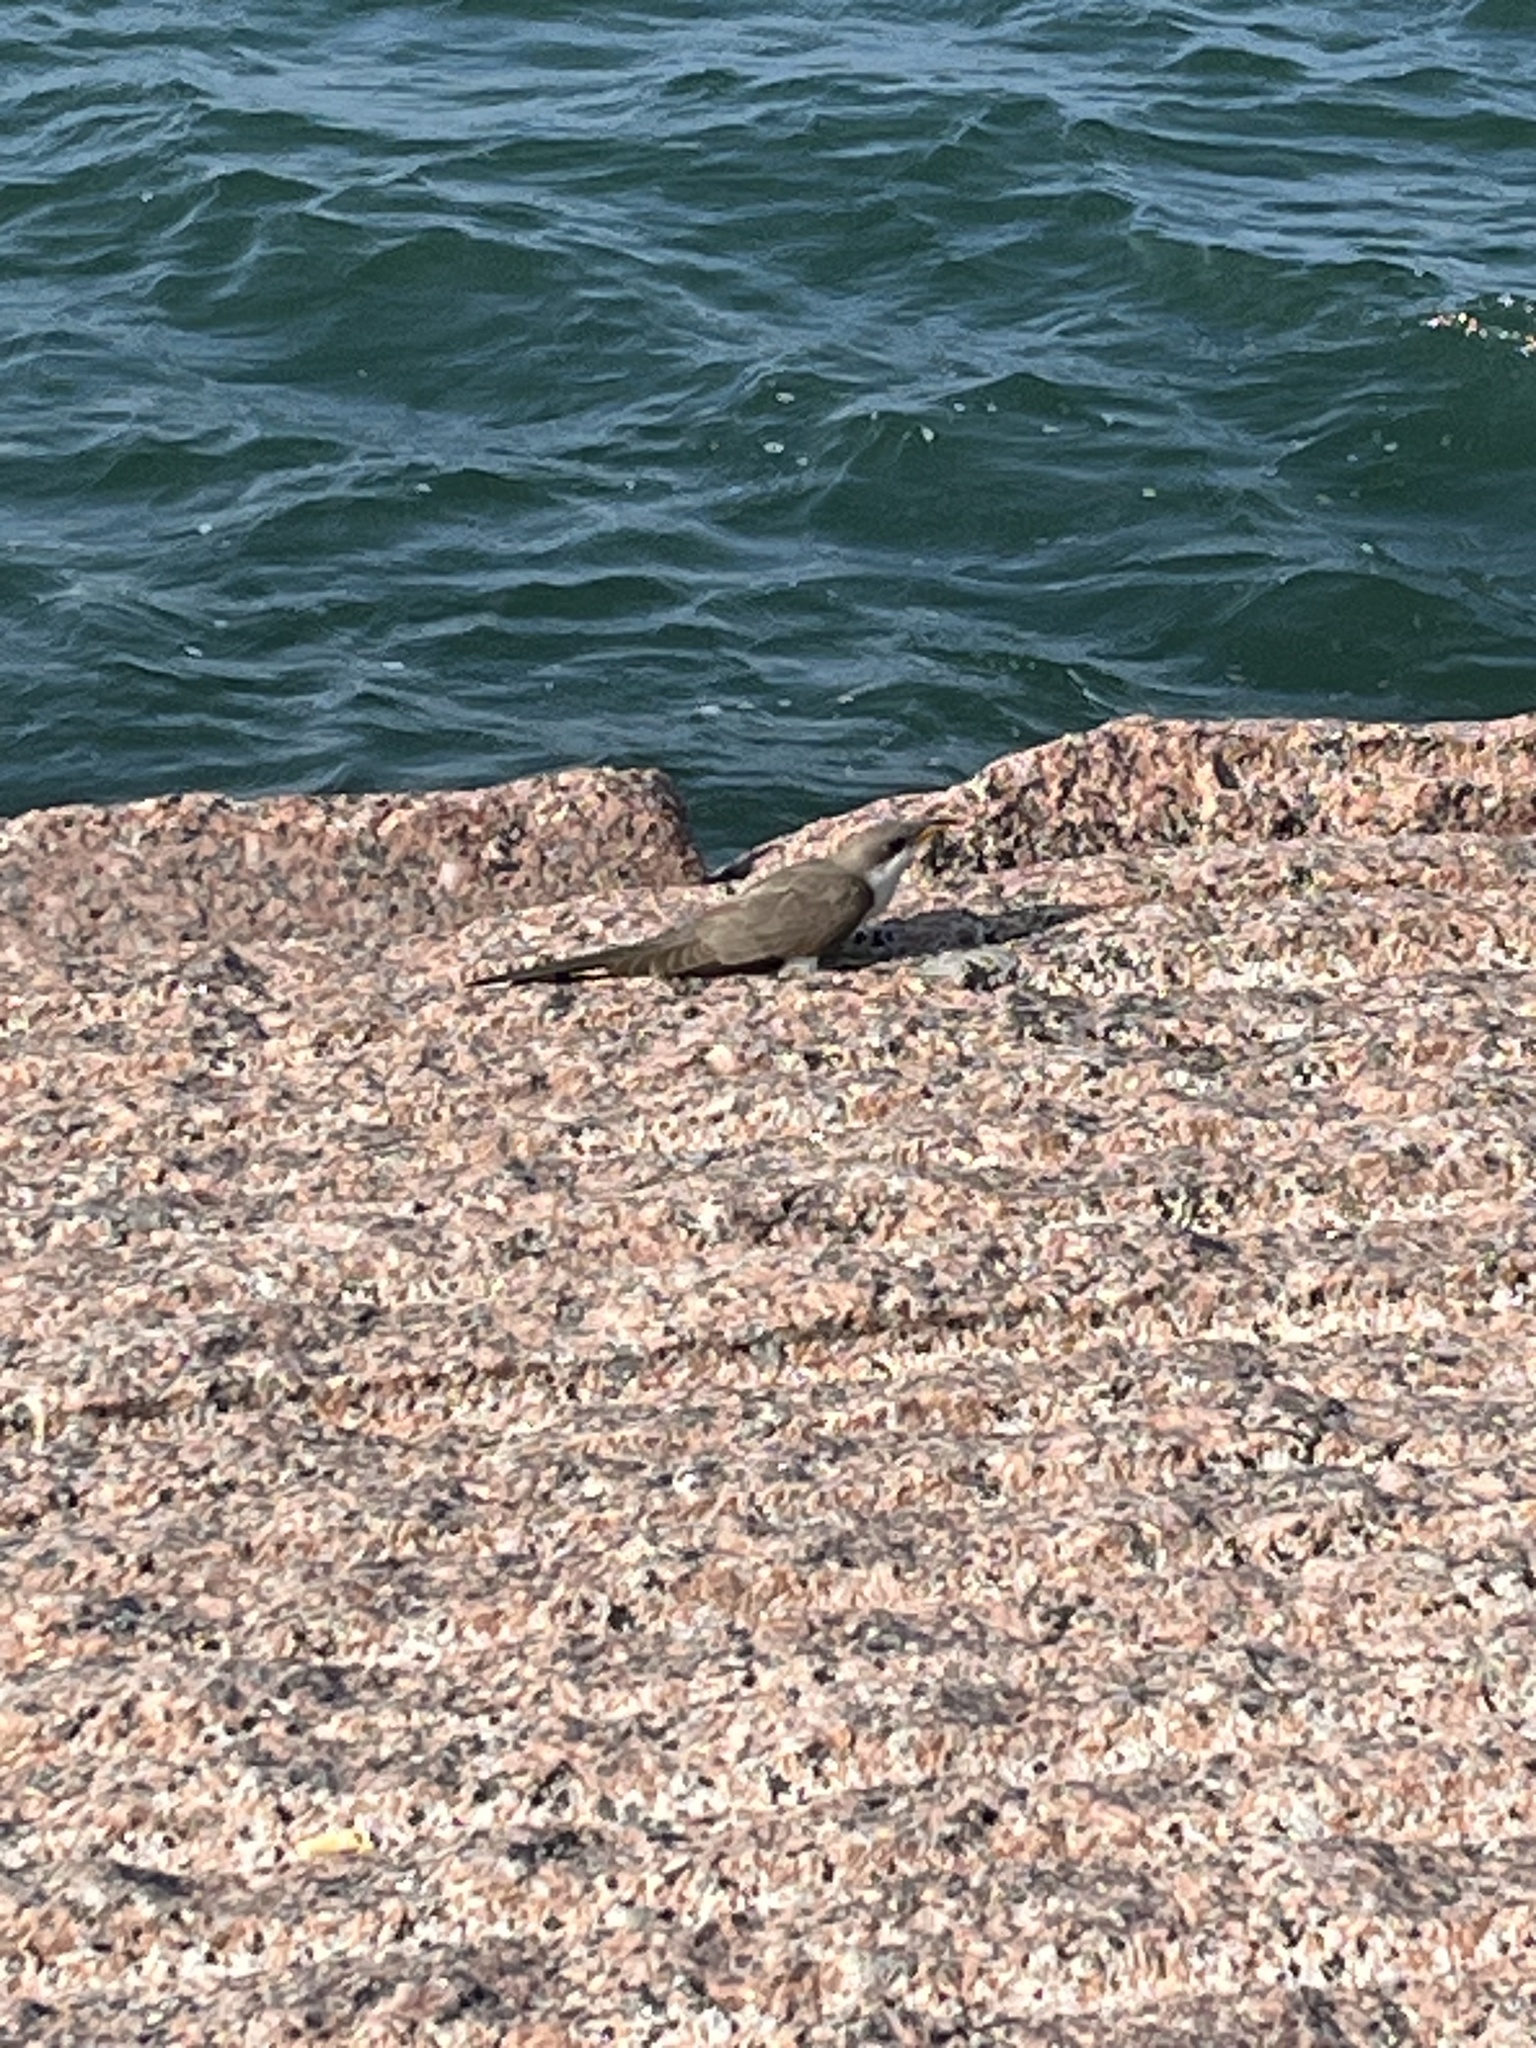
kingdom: Animalia
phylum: Chordata
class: Aves
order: Cuculiformes
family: Cuculidae
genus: Coccyzus
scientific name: Coccyzus americanus
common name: Yellow-billed cuckoo
